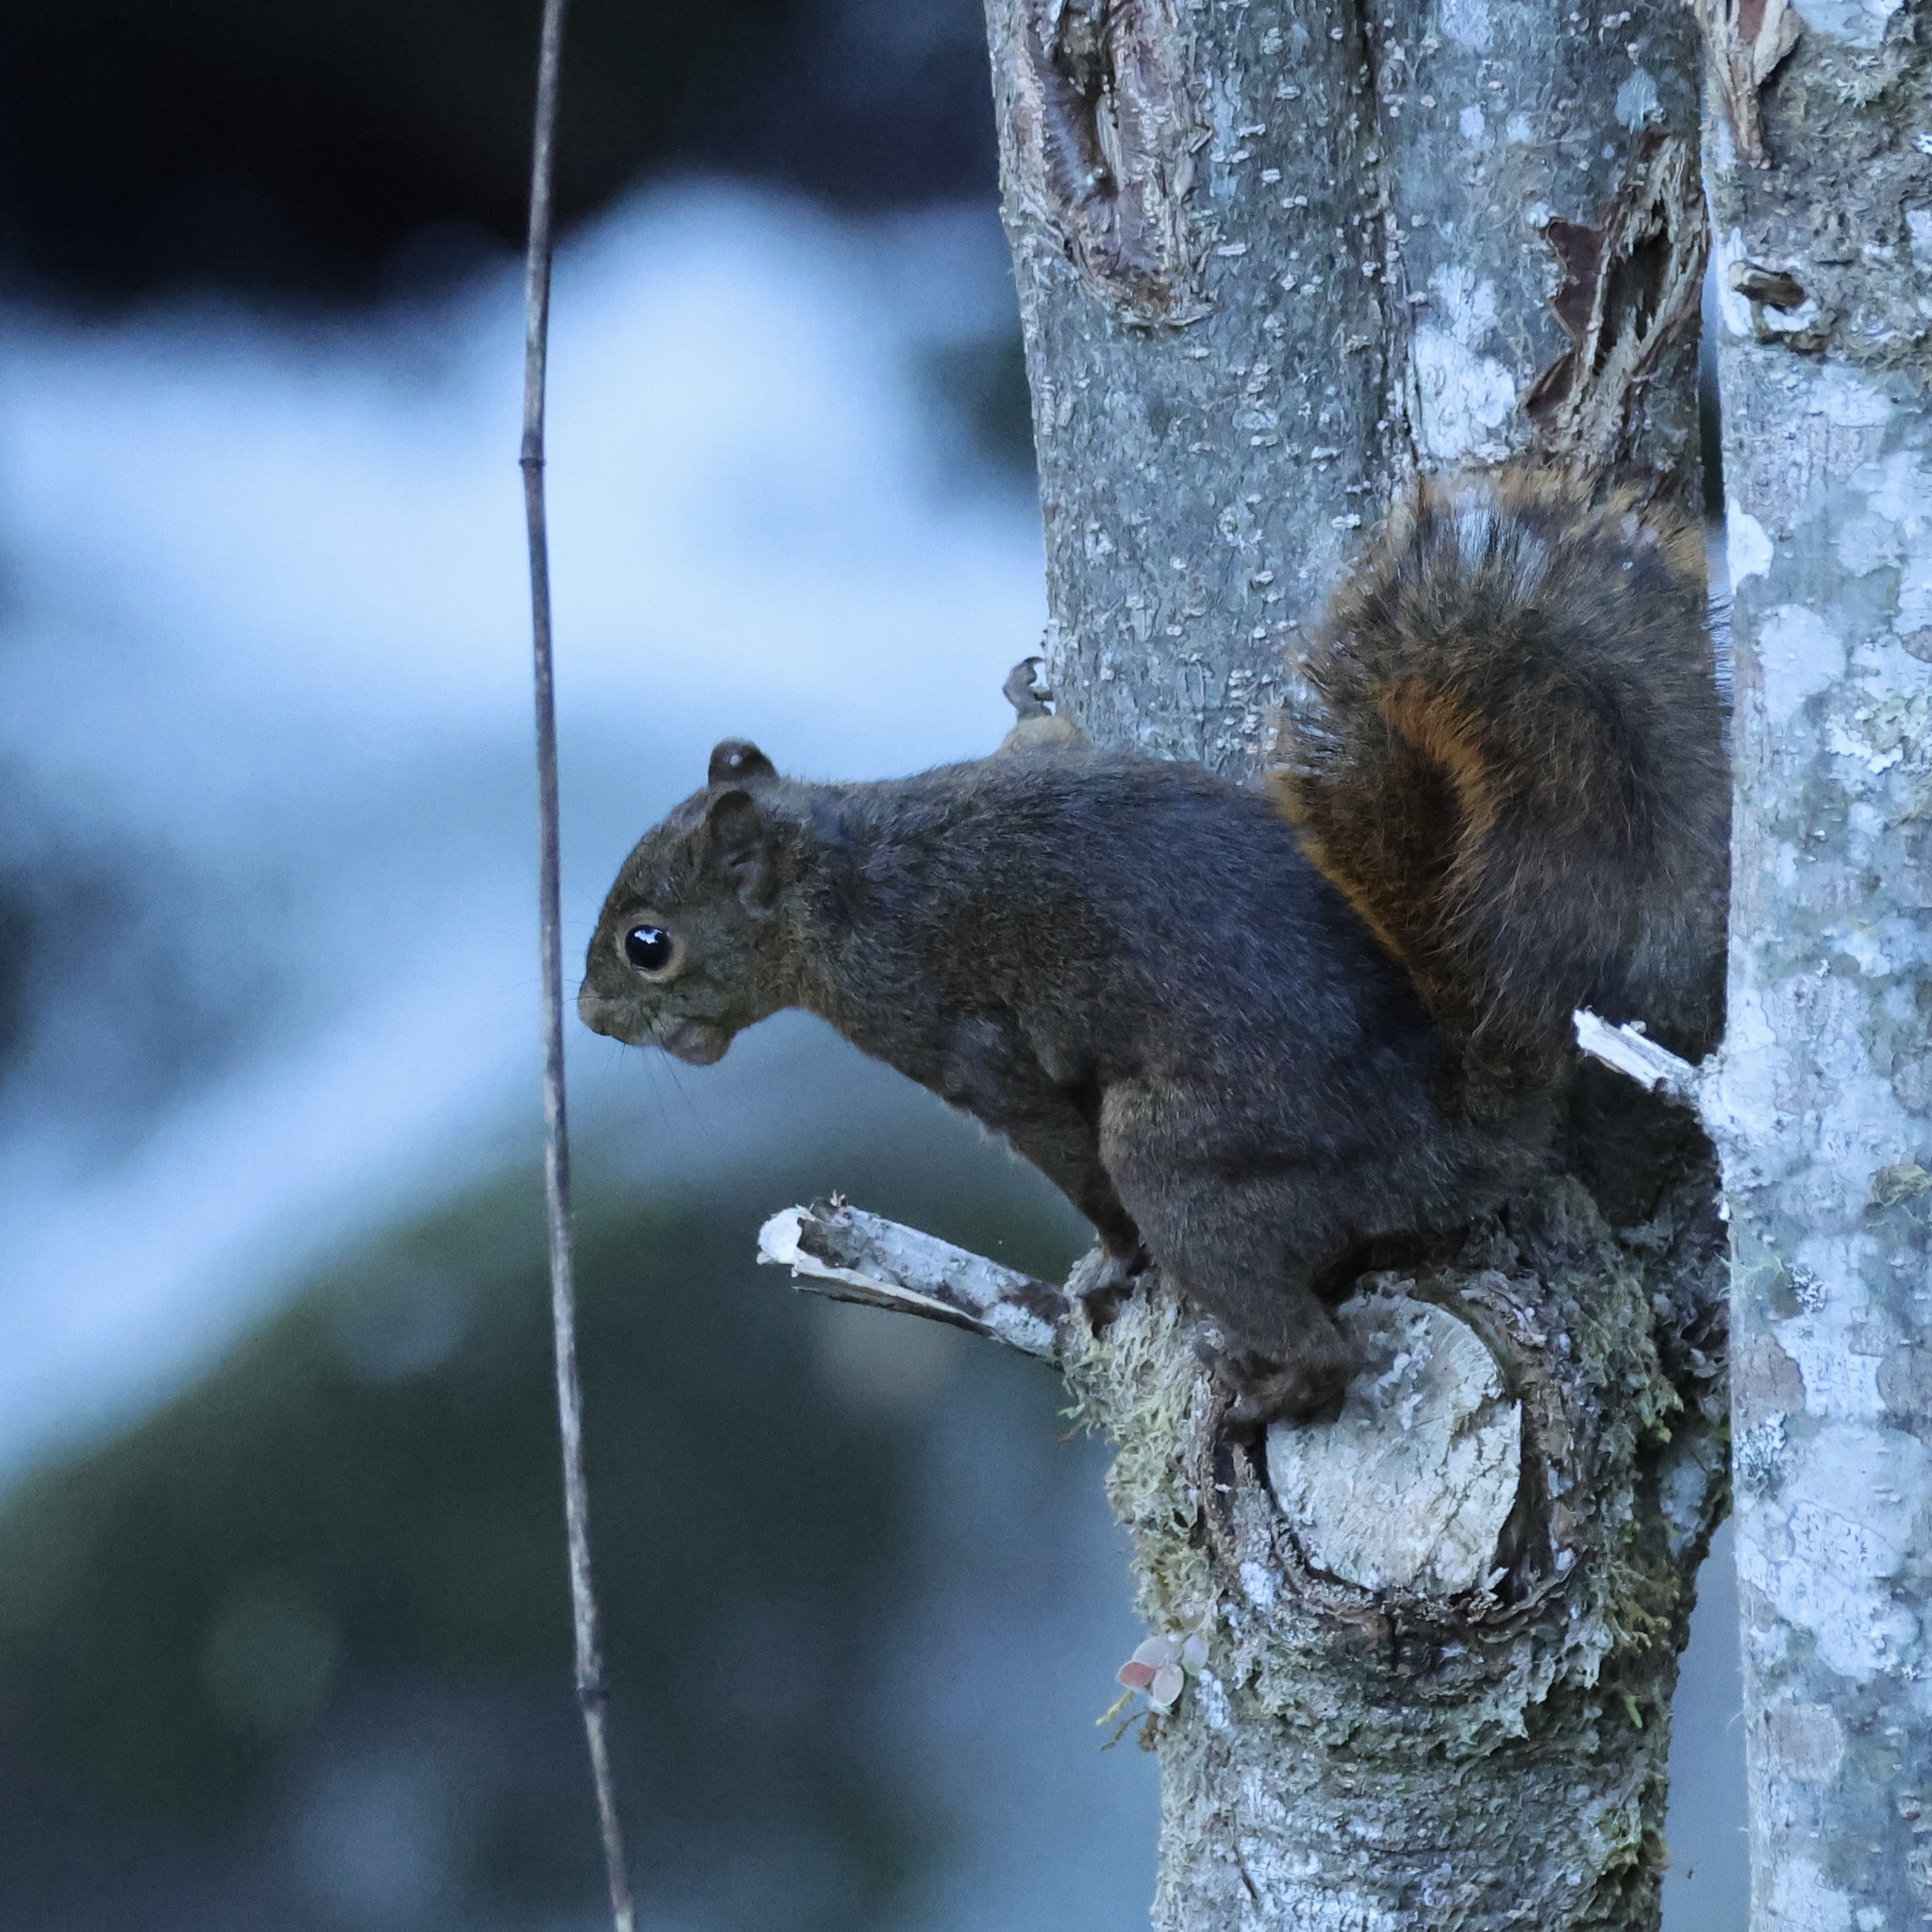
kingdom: Animalia
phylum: Chordata
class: Mammalia
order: Rodentia
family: Sciuridae
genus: Sciurus
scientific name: Sciurus granatensis
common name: Red-tailed squirrel
